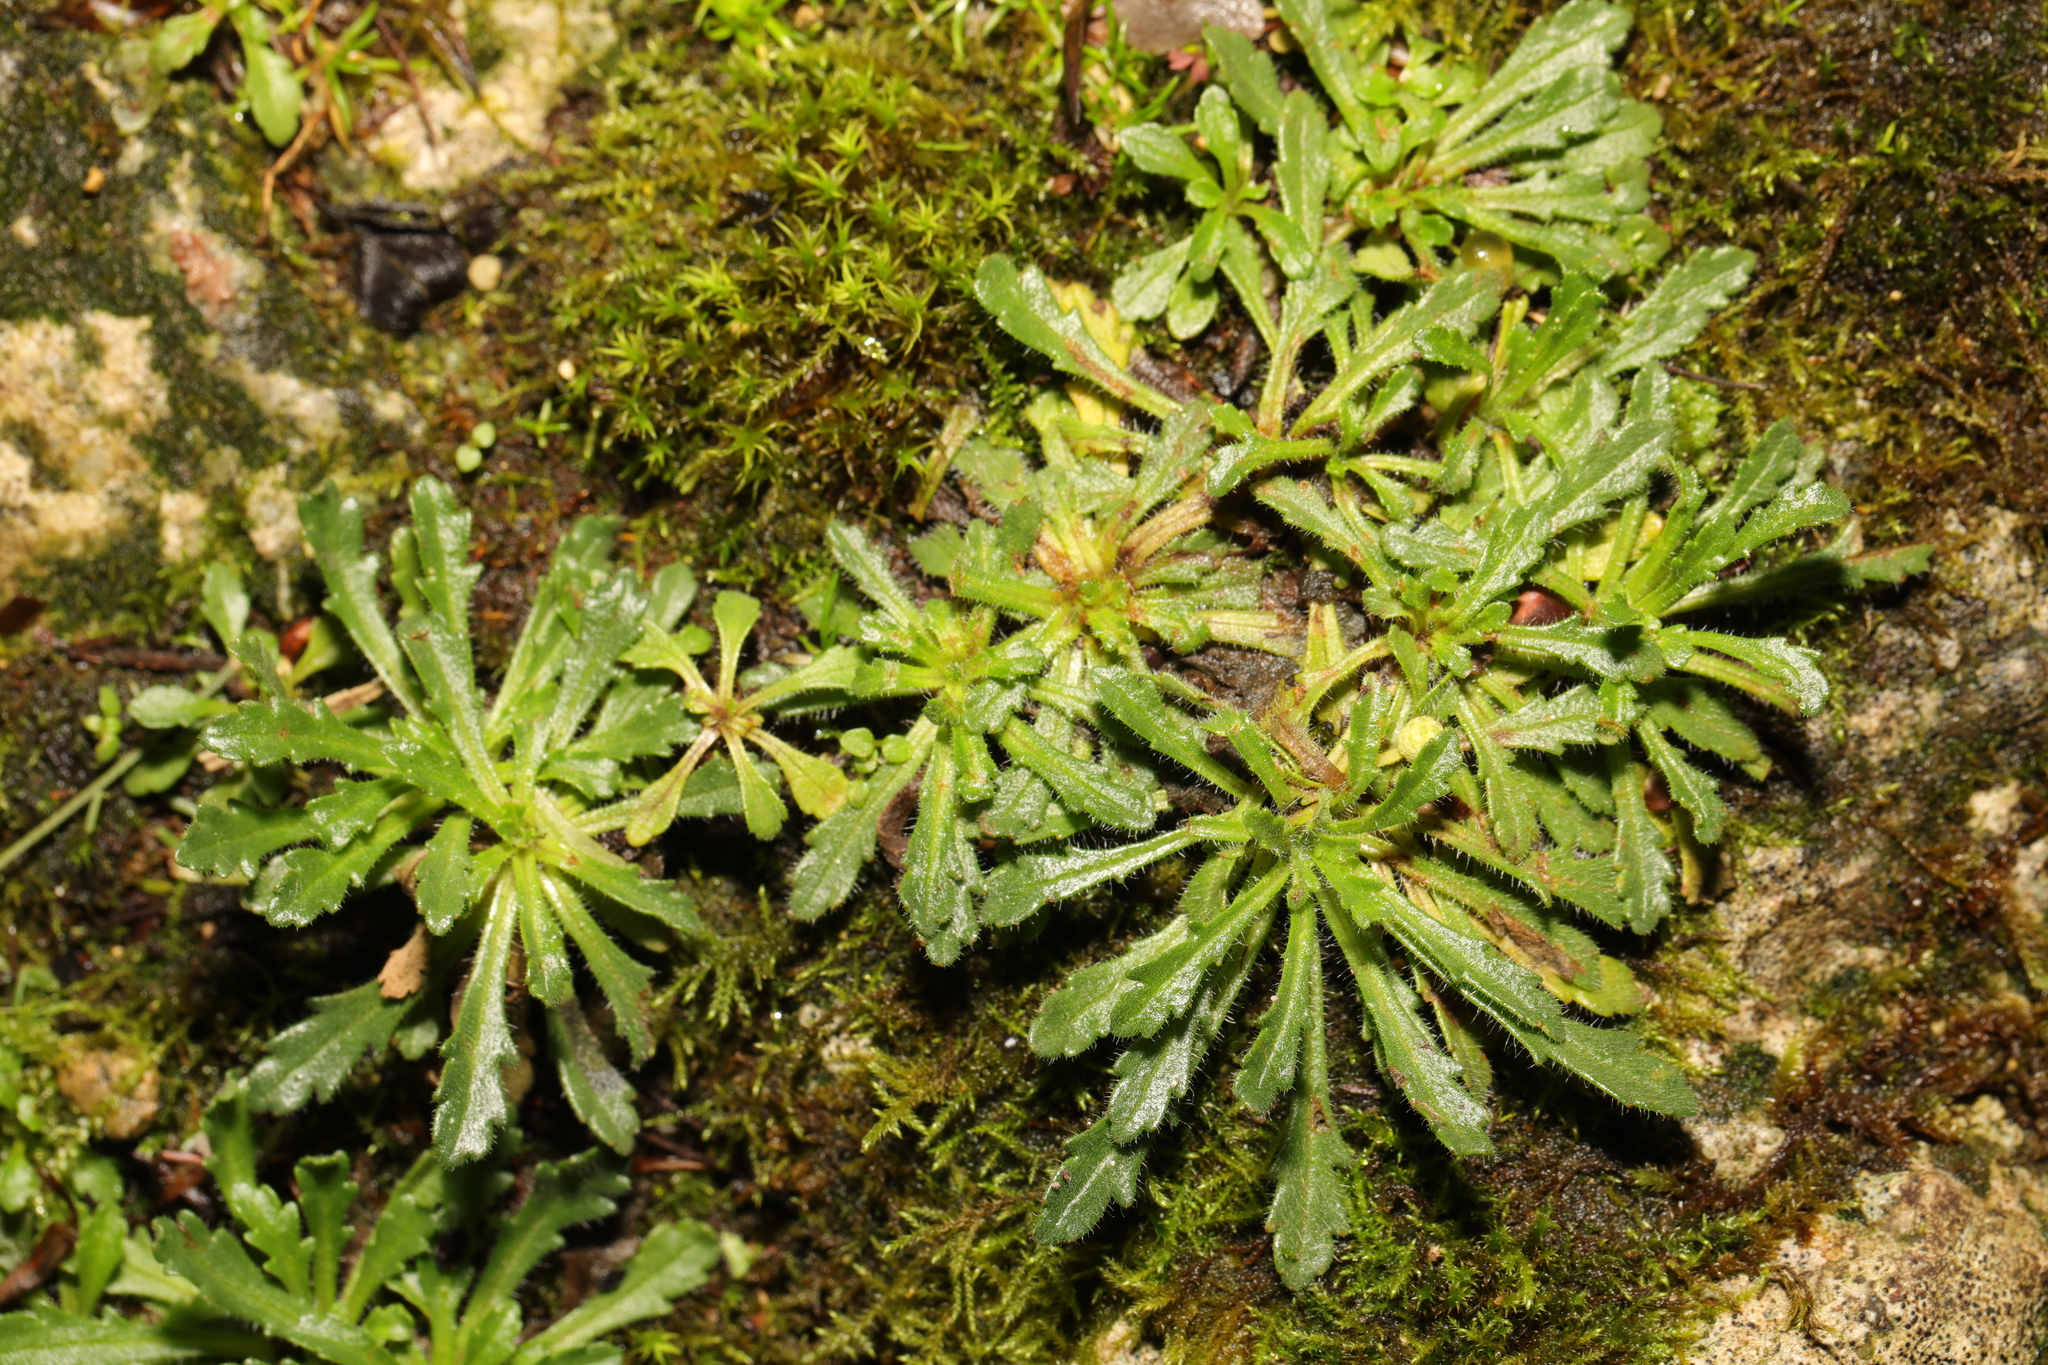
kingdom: Plantae
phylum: Tracheophyta
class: Magnoliopsida
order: Lamiales
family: Plantaginaceae
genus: Erinus
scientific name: Erinus alpinus
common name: Fairy foxglove
